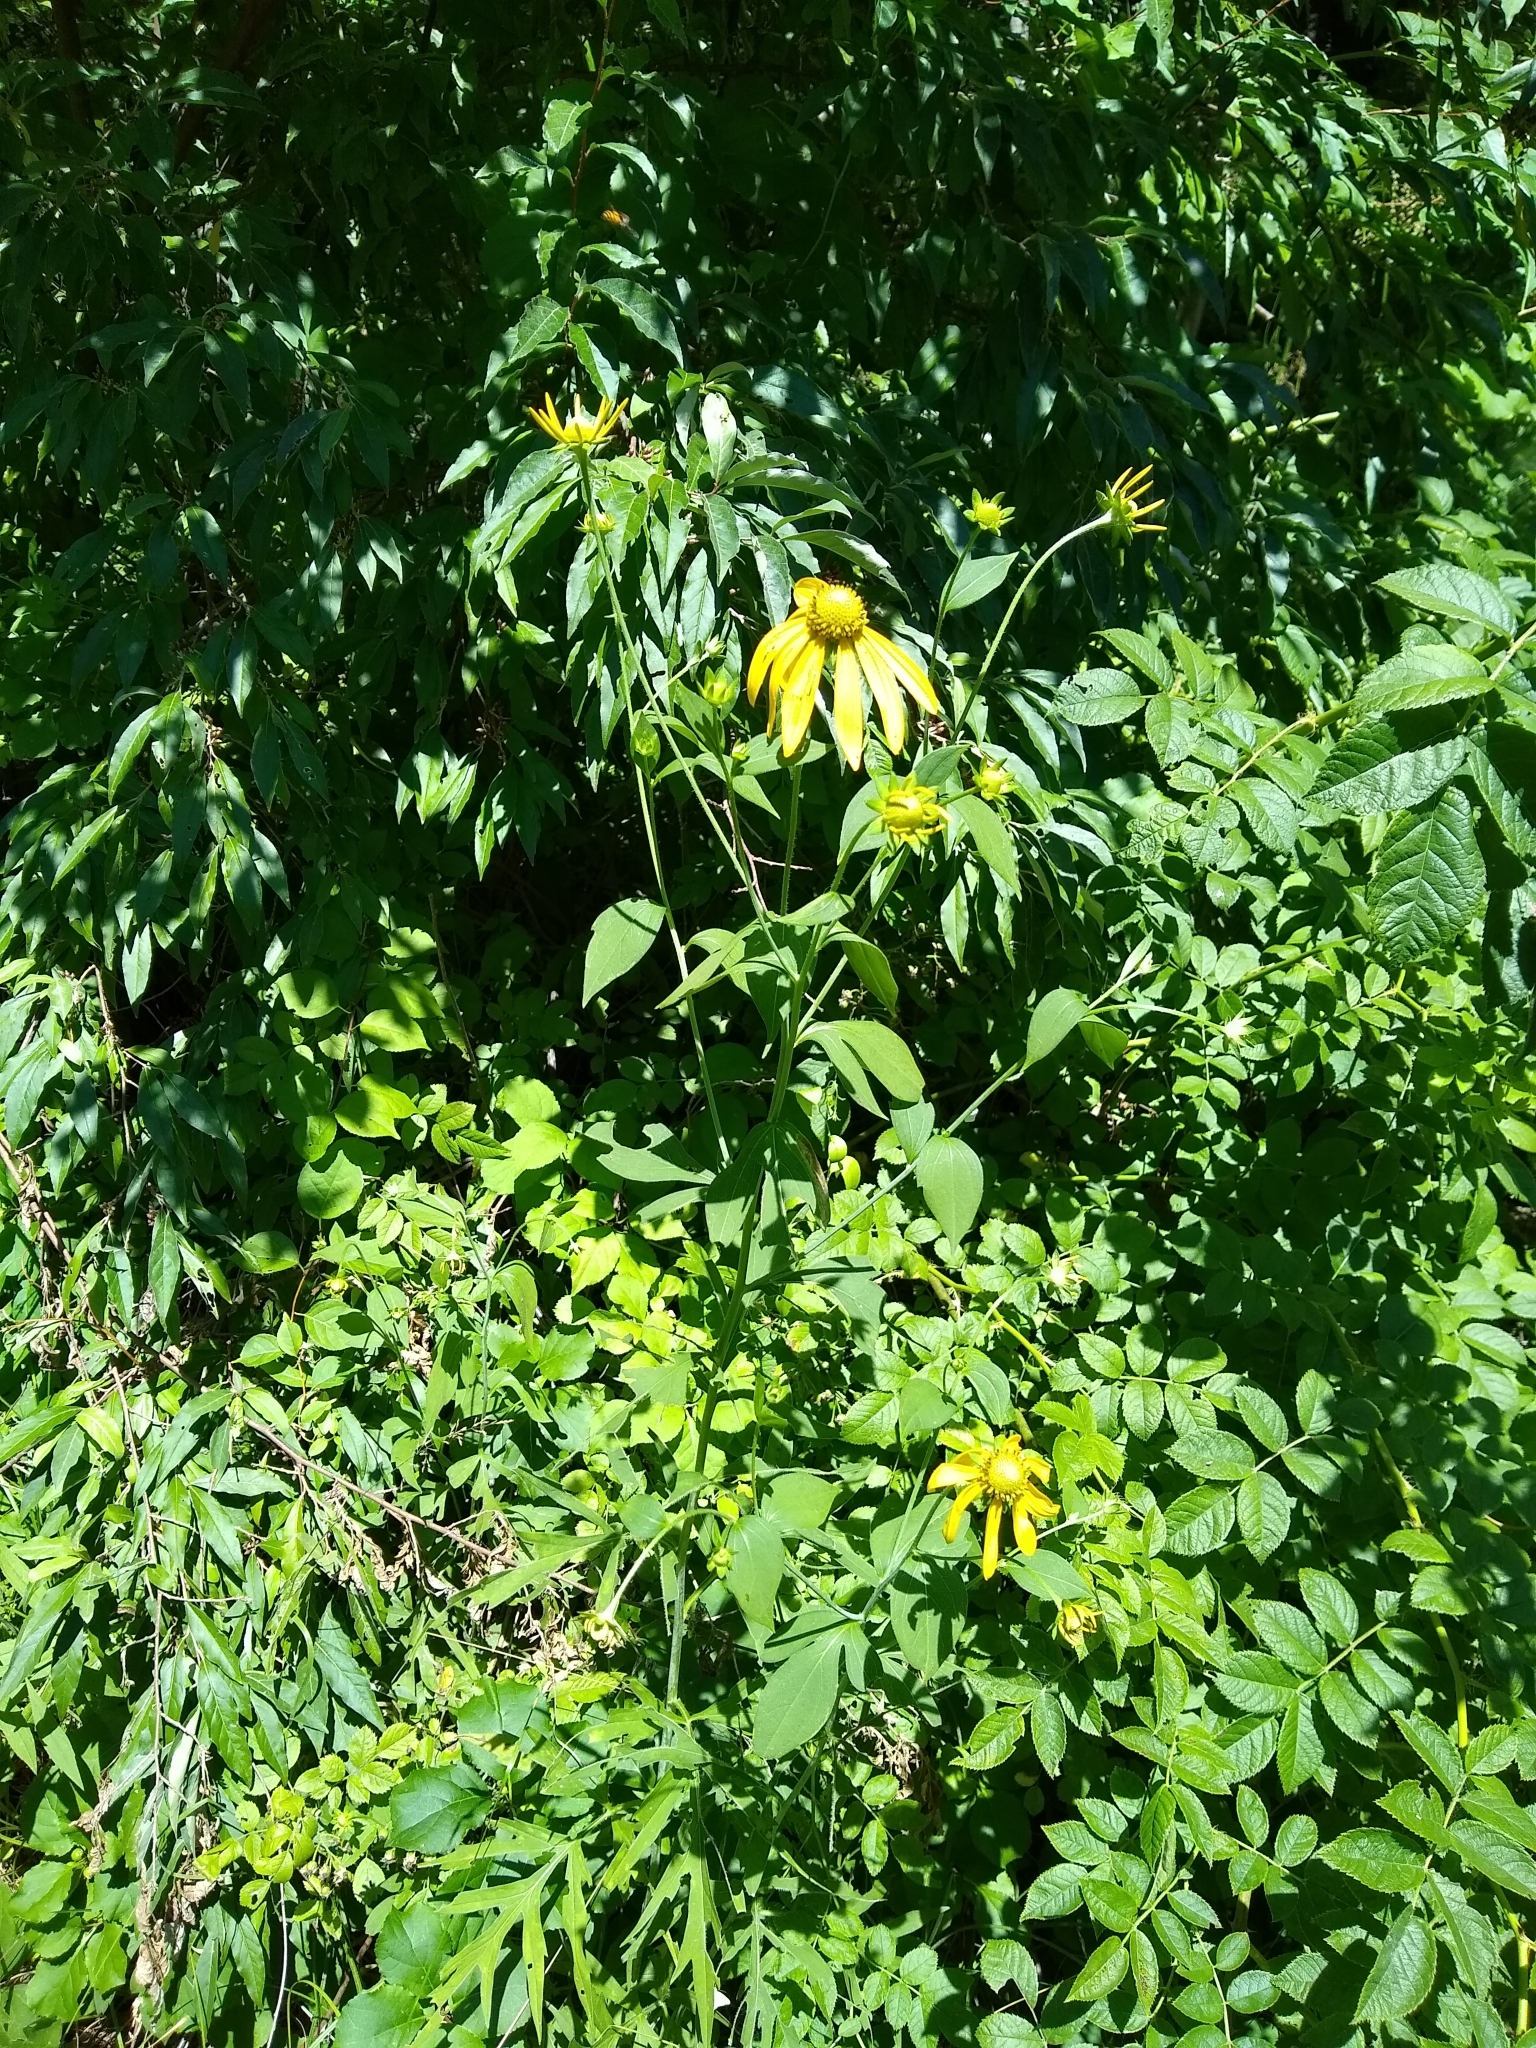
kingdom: Plantae
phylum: Tracheophyta
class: Magnoliopsida
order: Asterales
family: Asteraceae
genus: Rudbeckia
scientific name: Rudbeckia laciniata
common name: Coneflower
